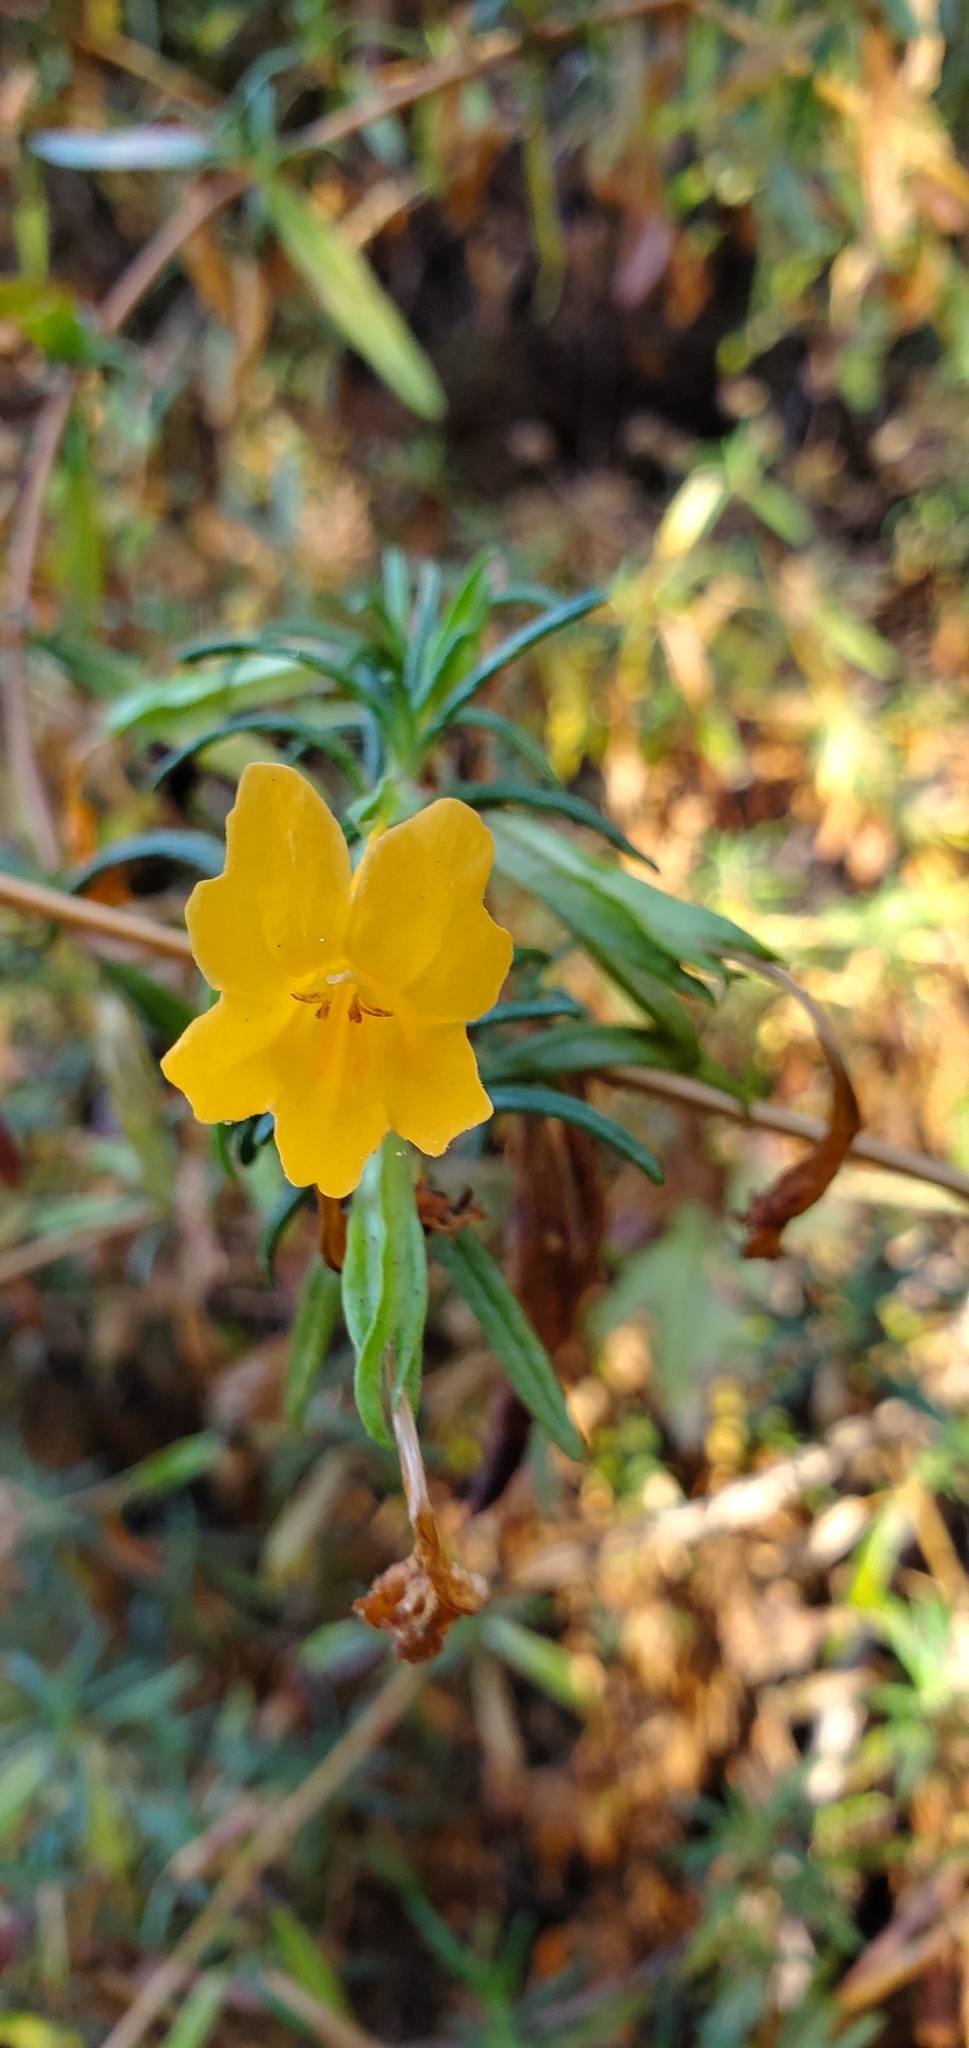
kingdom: Plantae
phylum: Tracheophyta
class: Magnoliopsida
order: Lamiales
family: Phrymaceae
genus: Diplacus
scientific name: Diplacus aurantiacus
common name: Bush monkey-flower
